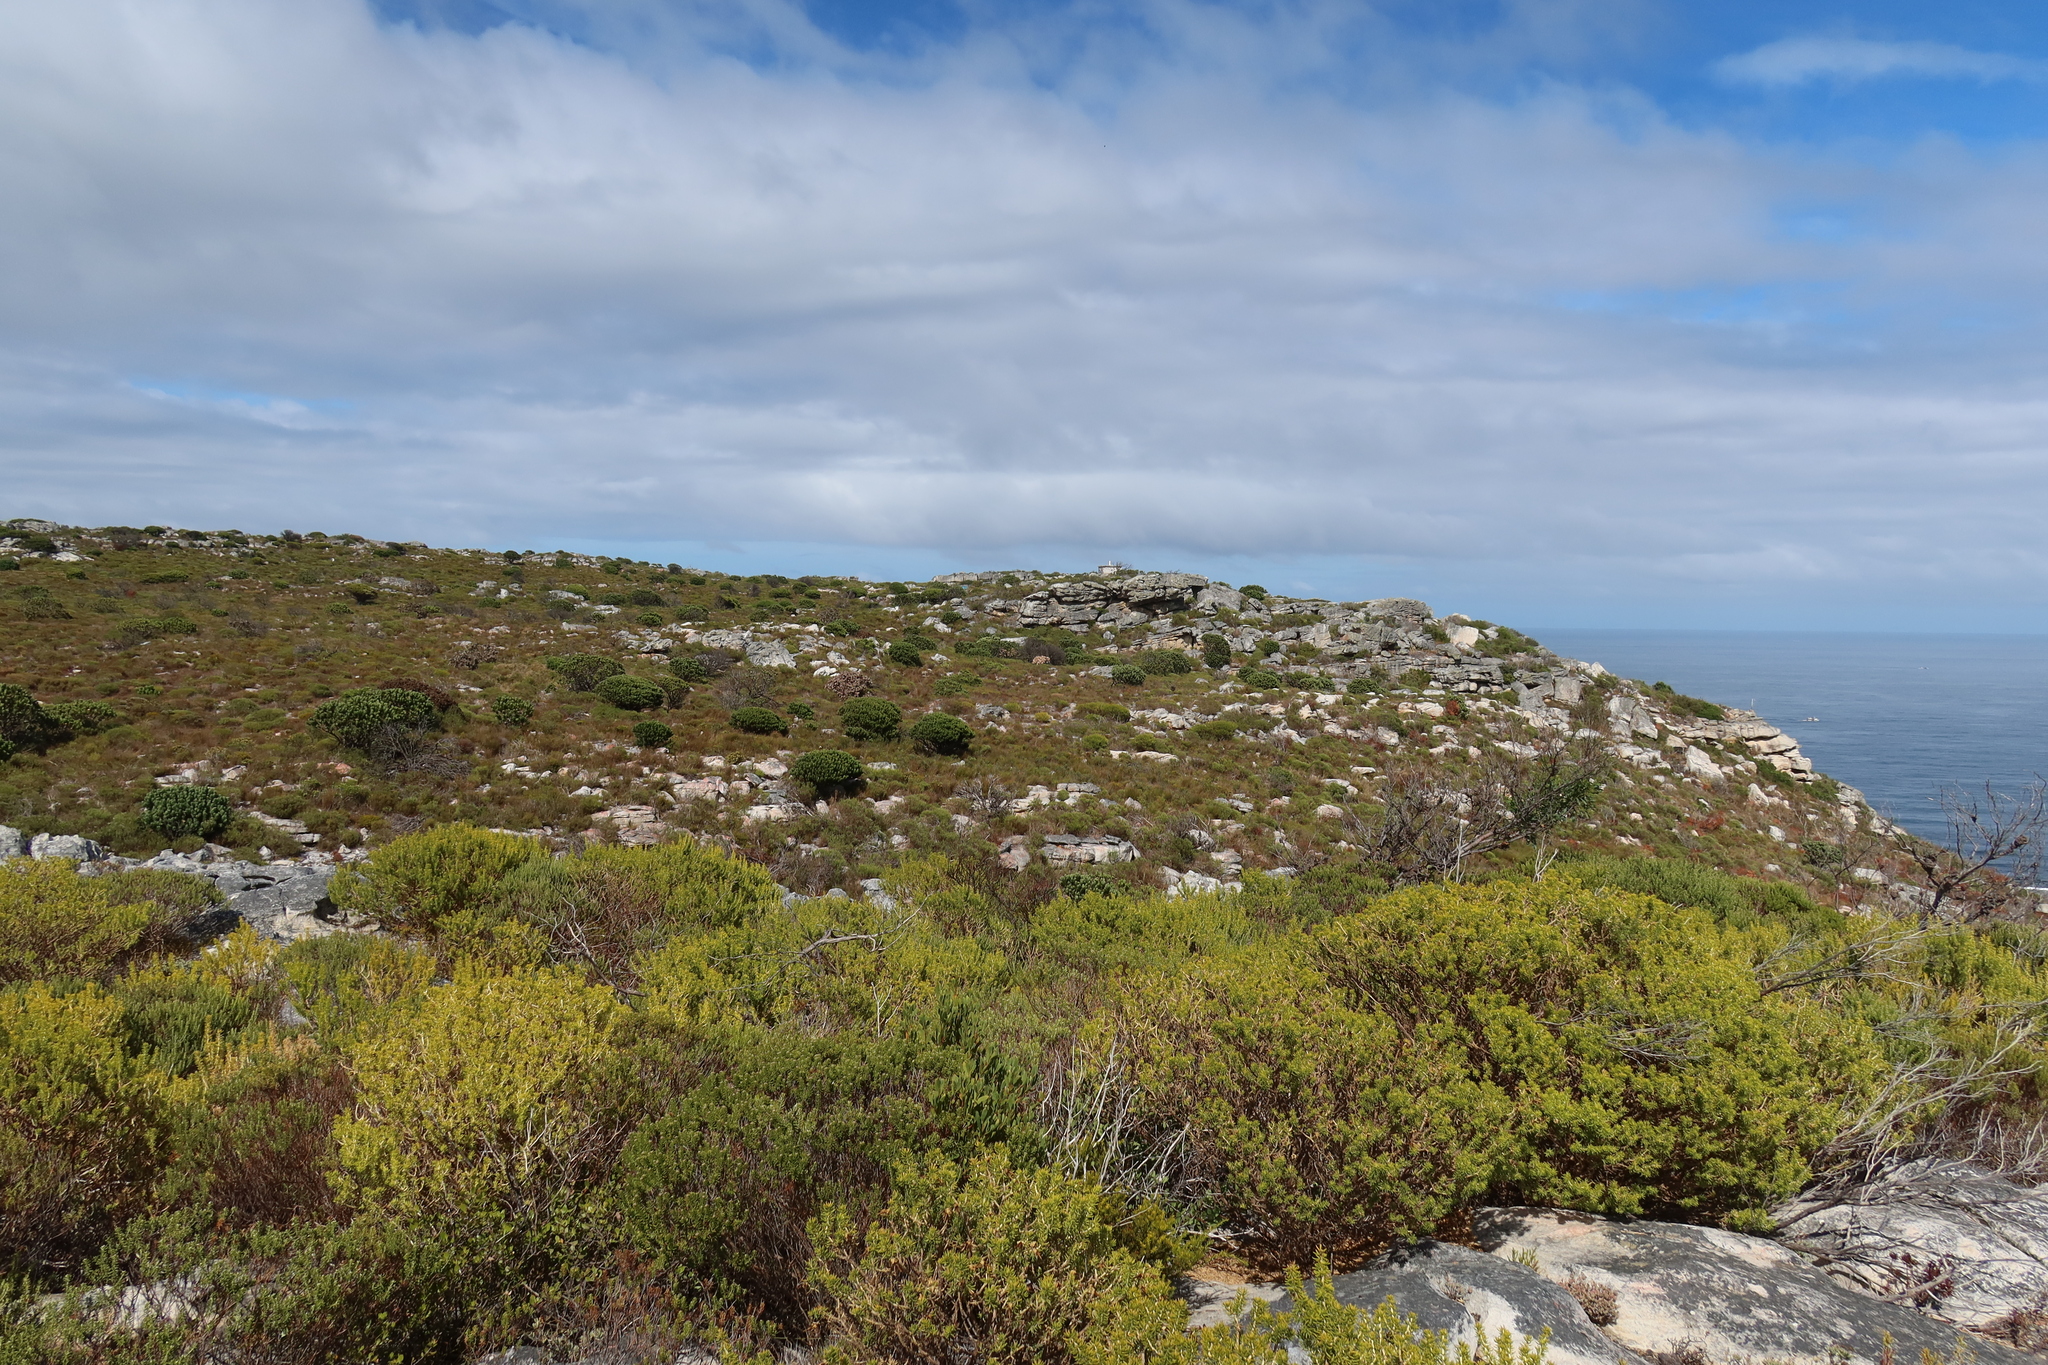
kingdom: Plantae
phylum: Tracheophyta
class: Magnoliopsida
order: Fabales
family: Fabaceae
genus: Acacia
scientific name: Acacia cyclops
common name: Coastal wattle
